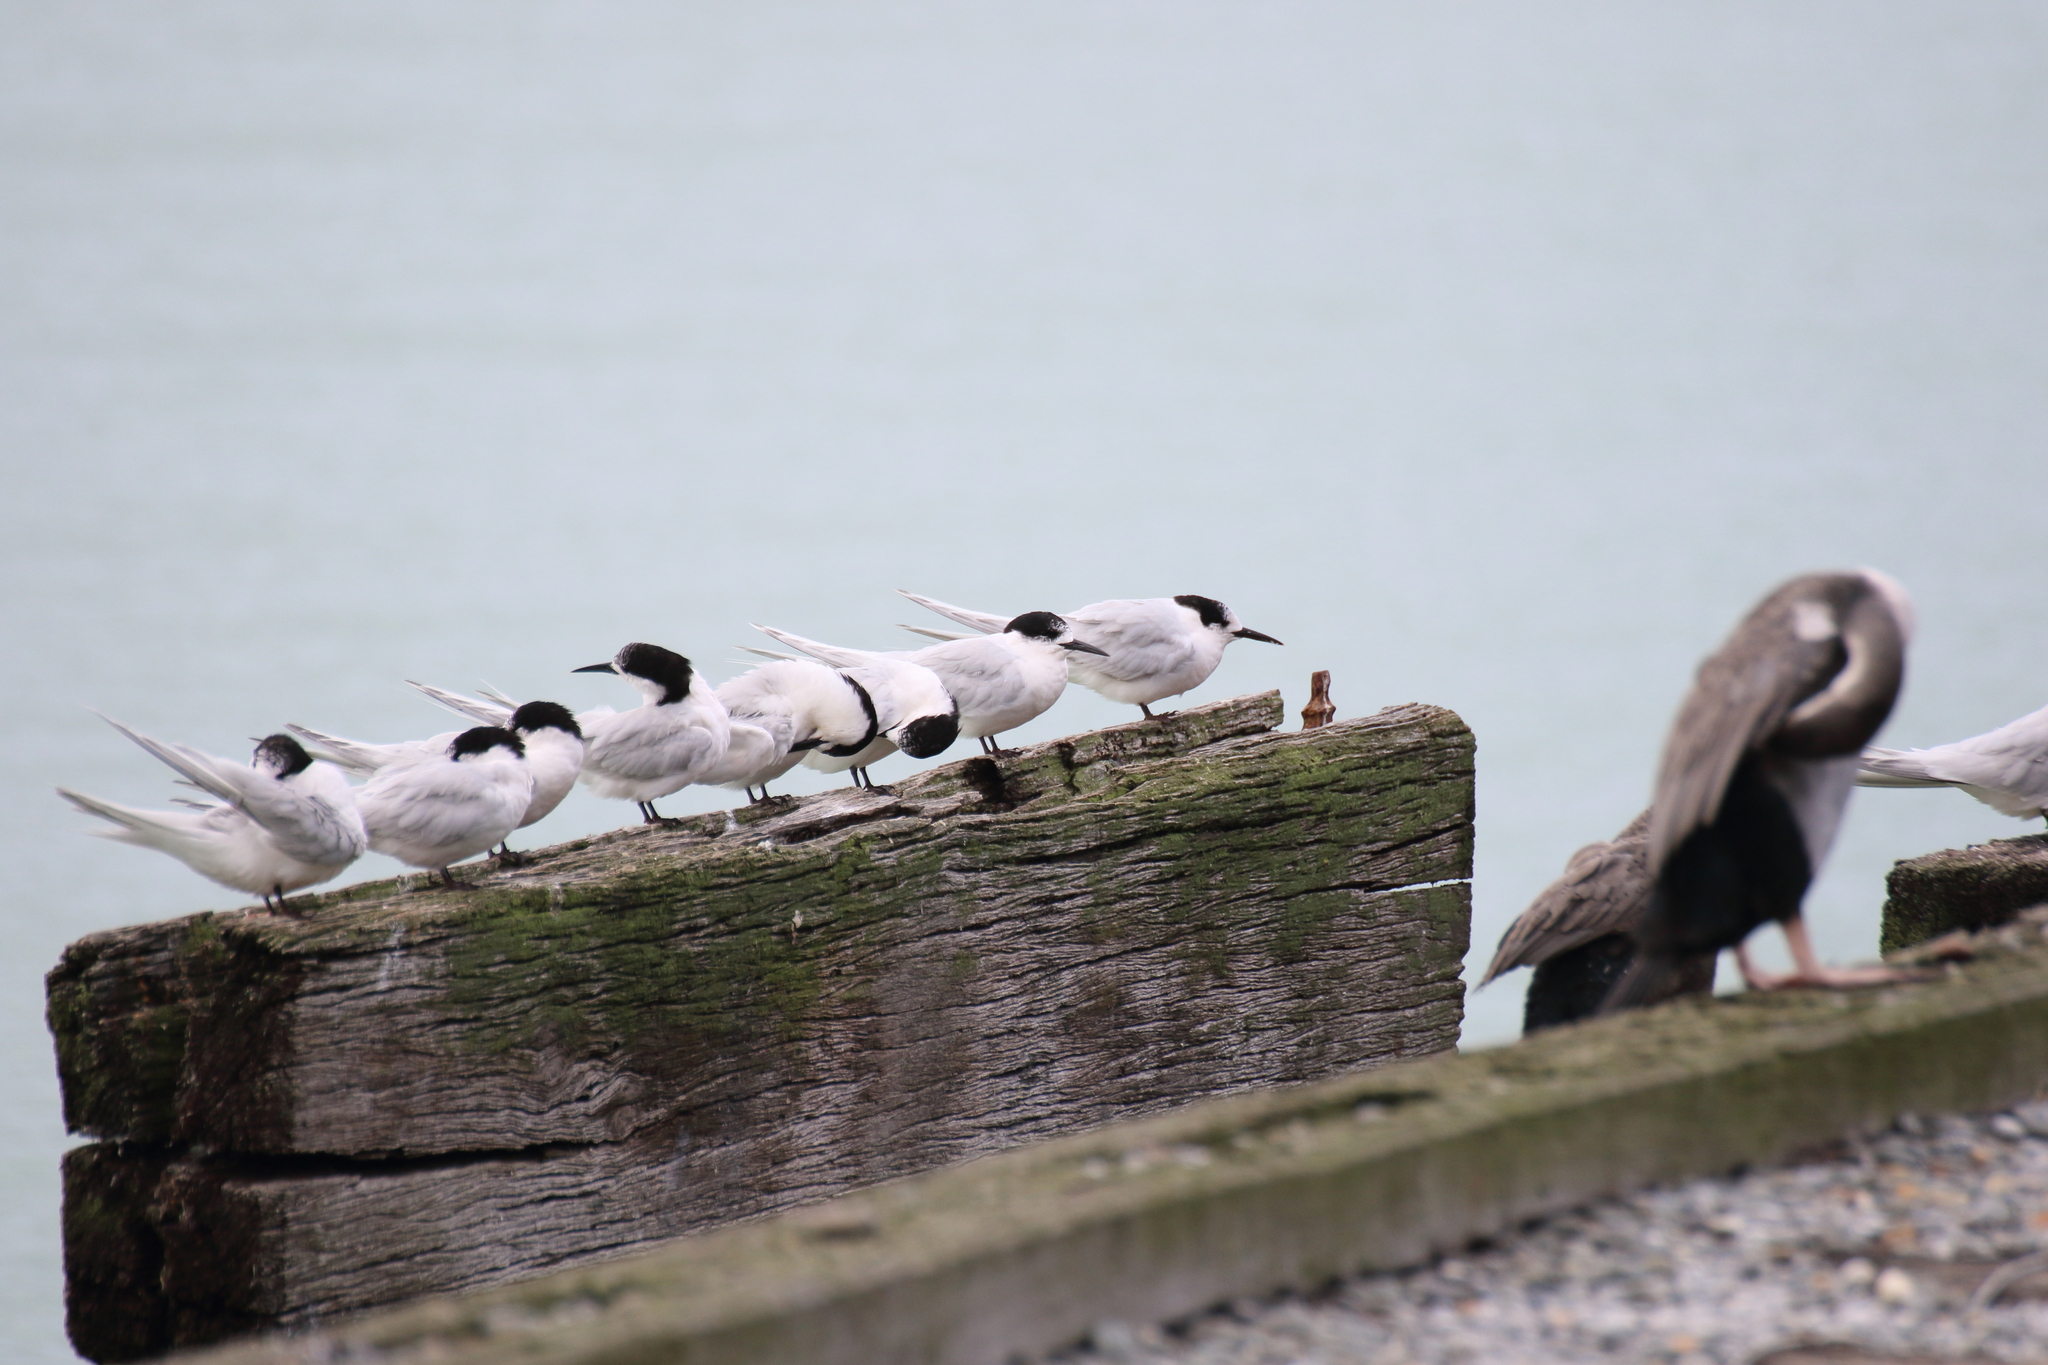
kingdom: Animalia
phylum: Chordata
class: Aves
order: Charadriiformes
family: Laridae
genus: Sterna
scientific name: Sterna striata
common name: White-fronted tern
